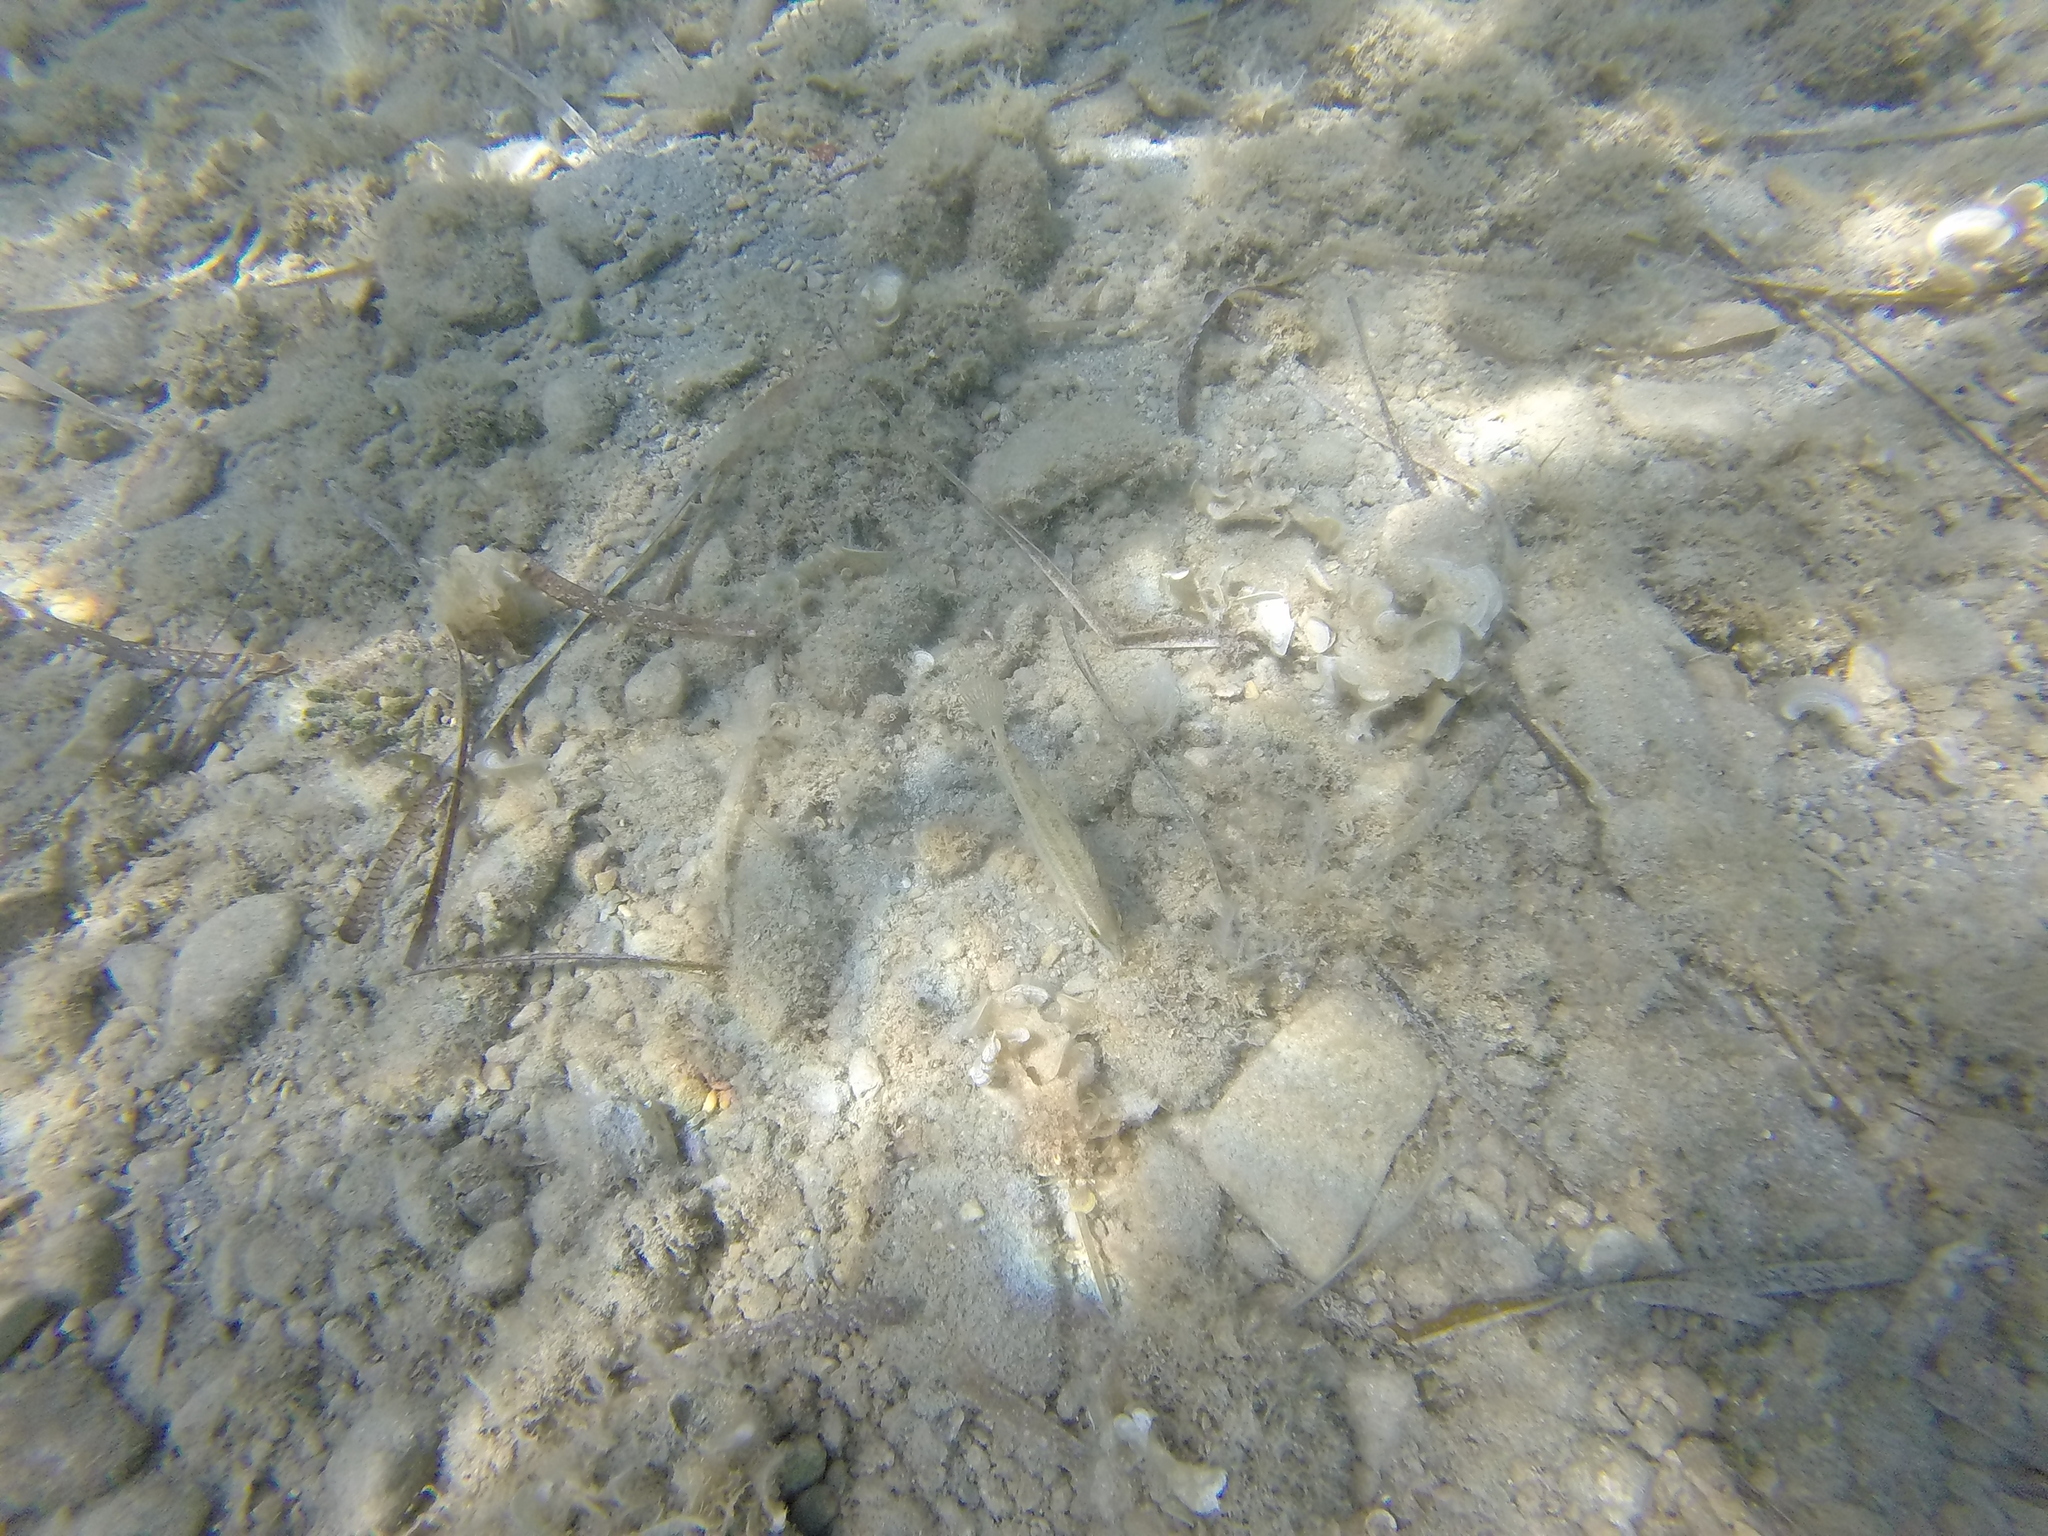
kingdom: Animalia
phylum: Chordata
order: Perciformes
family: Labridae
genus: Symphodus
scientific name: Symphodus tinca
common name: Peacock wrasse
